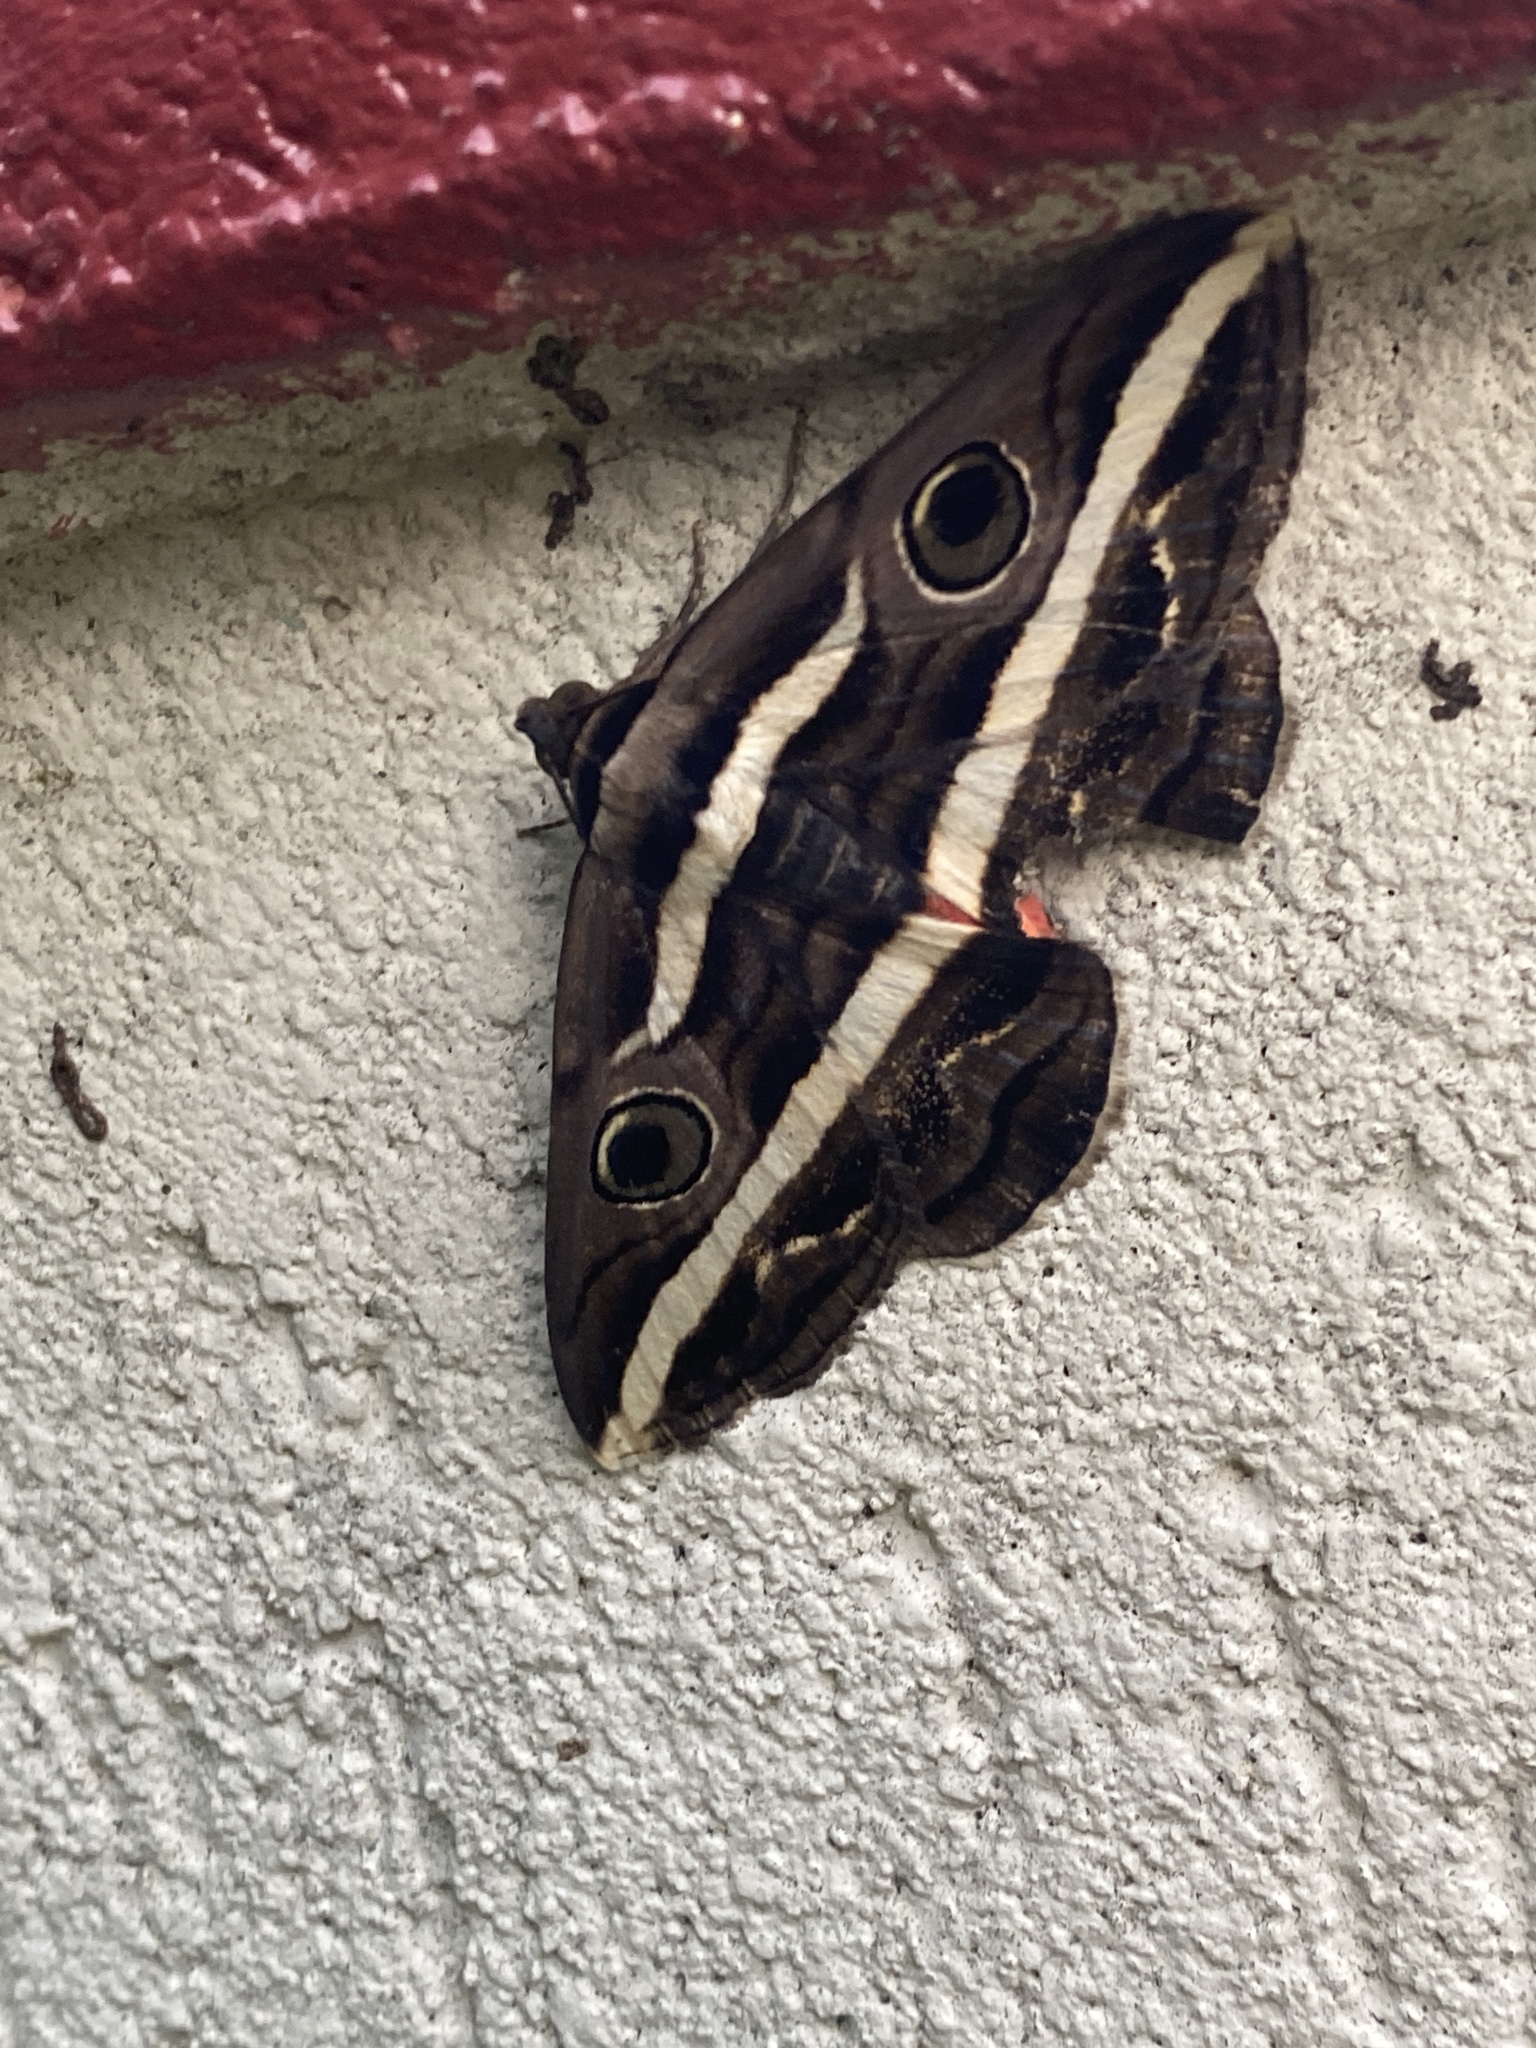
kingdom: Animalia
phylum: Arthropoda
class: Insecta
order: Lepidoptera
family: Erebidae
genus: Donuca
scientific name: Donuca rubropicta
